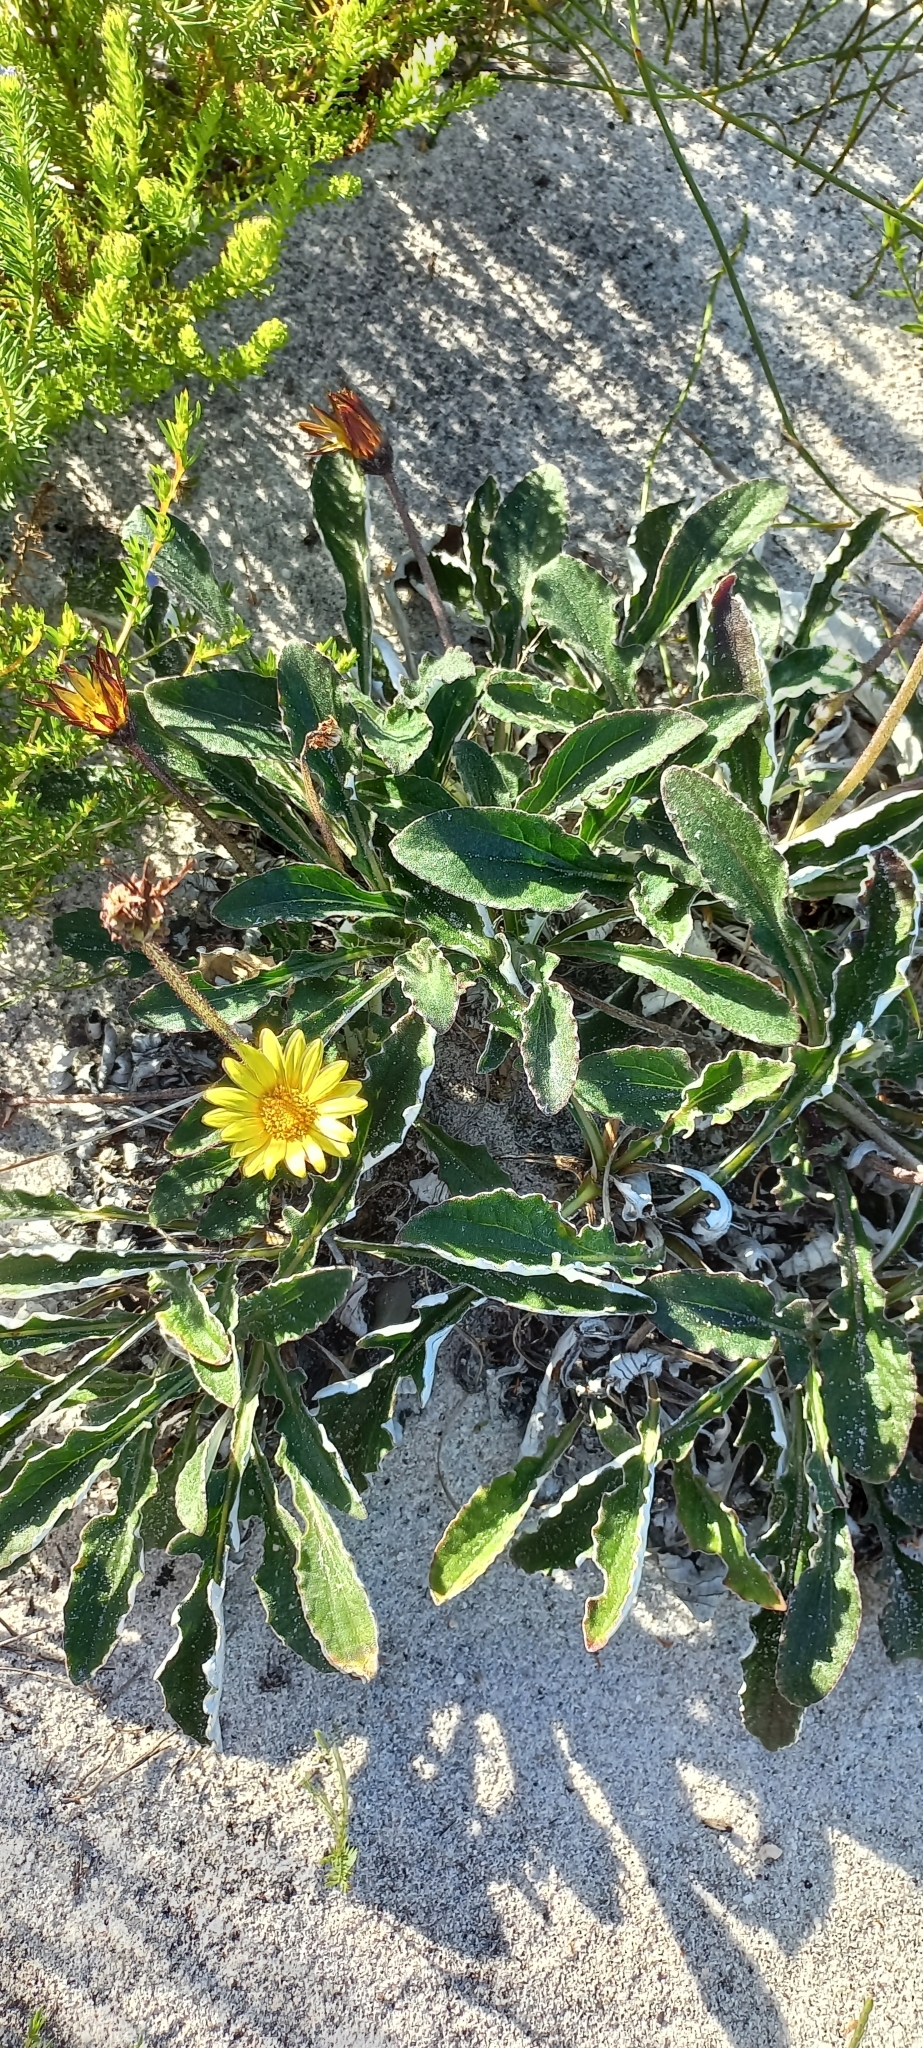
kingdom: Plantae
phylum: Tracheophyta
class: Magnoliopsida
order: Asterales
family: Asteraceae
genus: Haplocarpha
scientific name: Haplocarpha lanata
